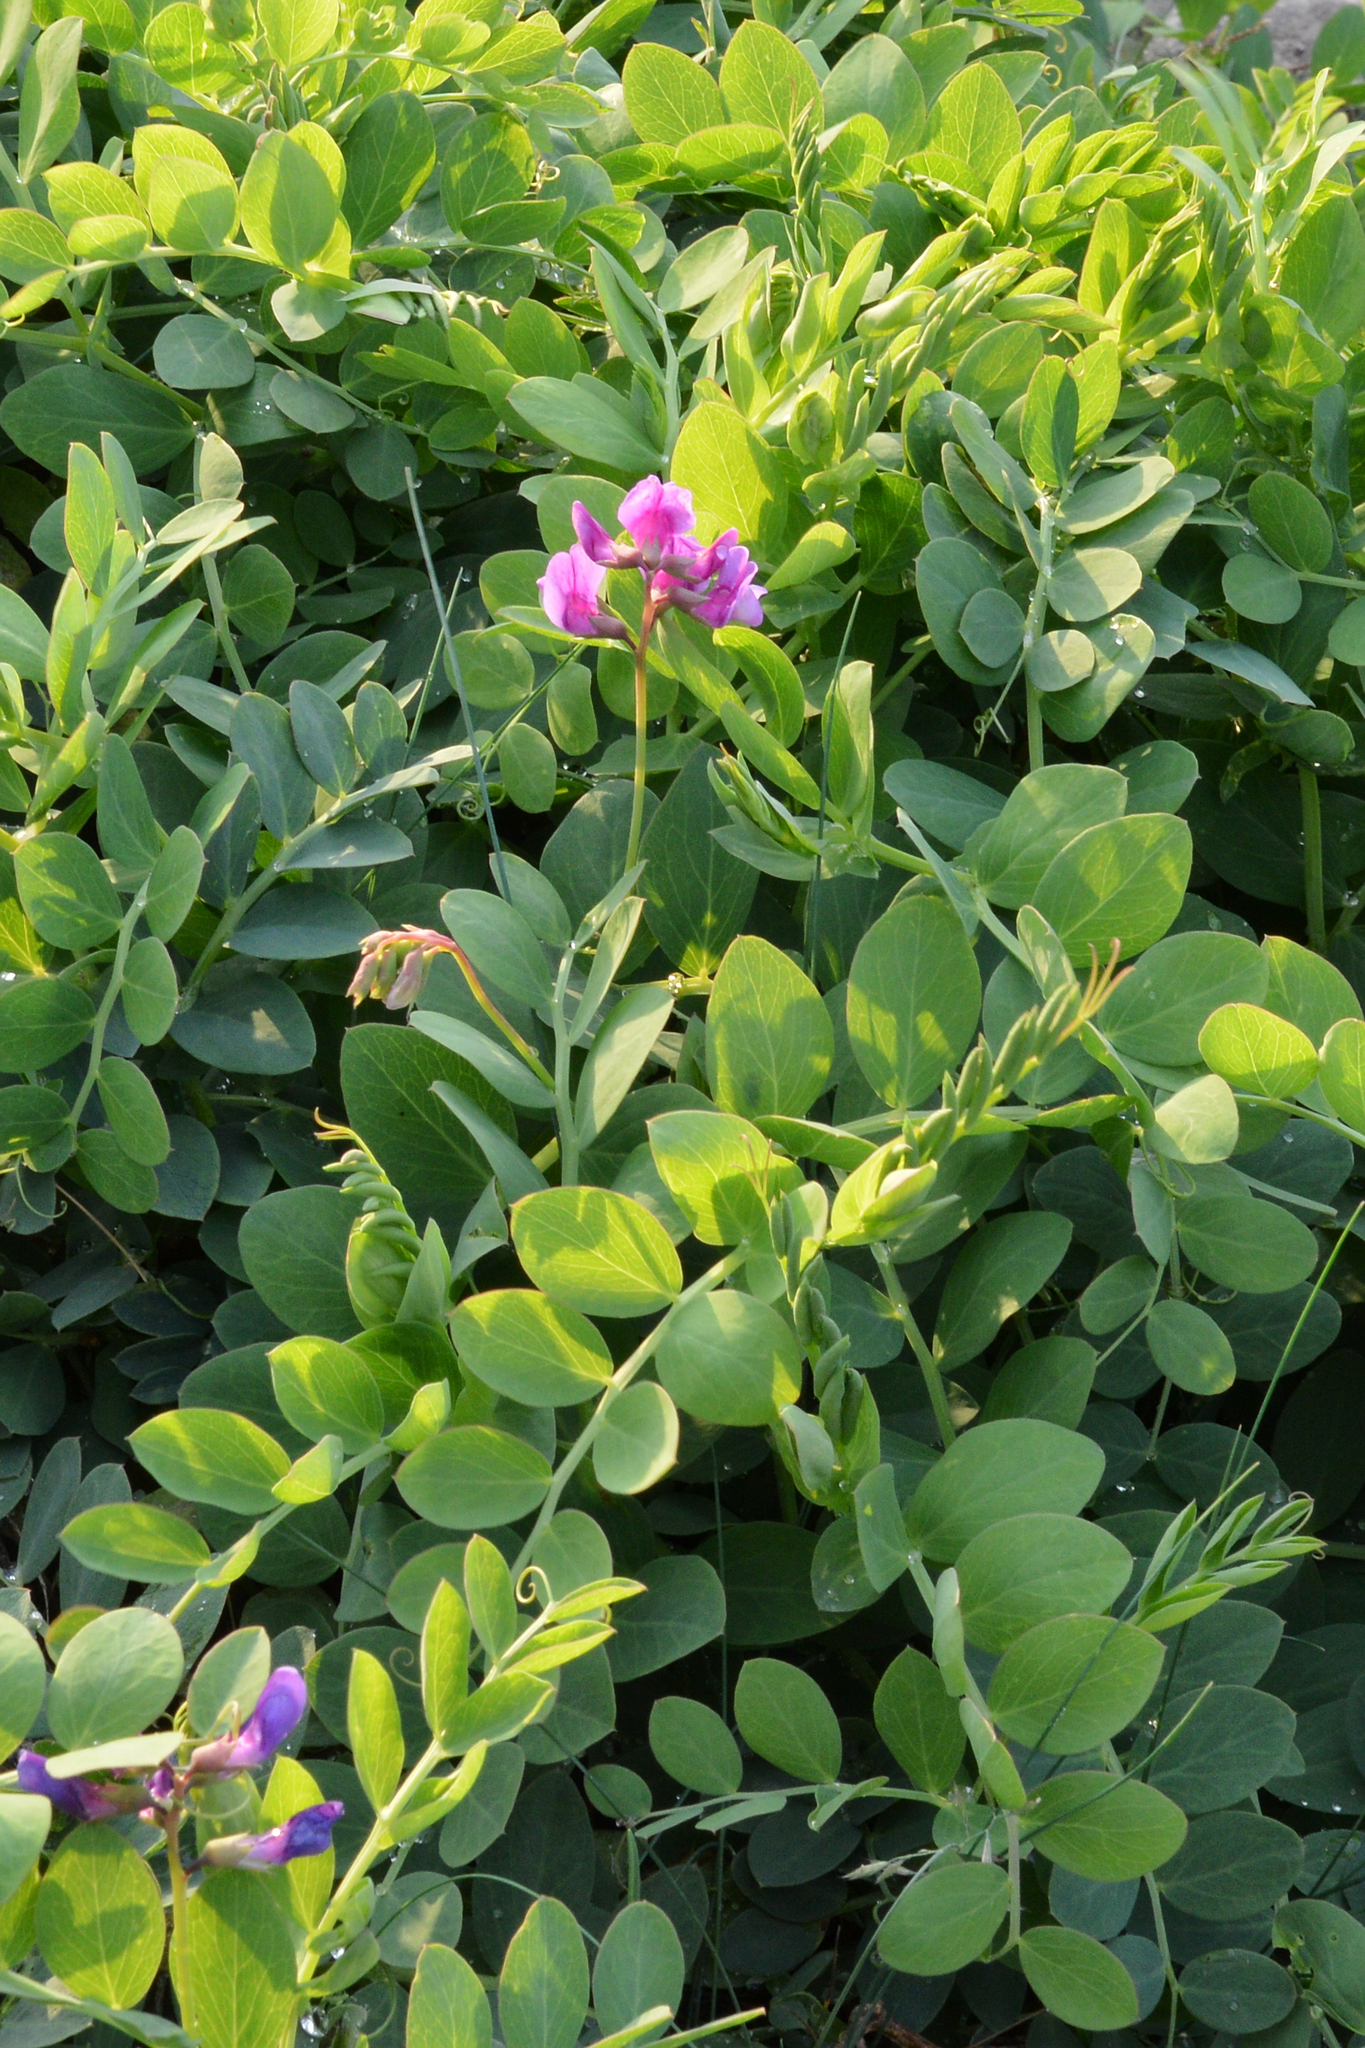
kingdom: Plantae
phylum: Tracheophyta
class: Magnoliopsida
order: Fabales
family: Fabaceae
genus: Lathyrus
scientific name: Lathyrus japonicus
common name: Sea pea
